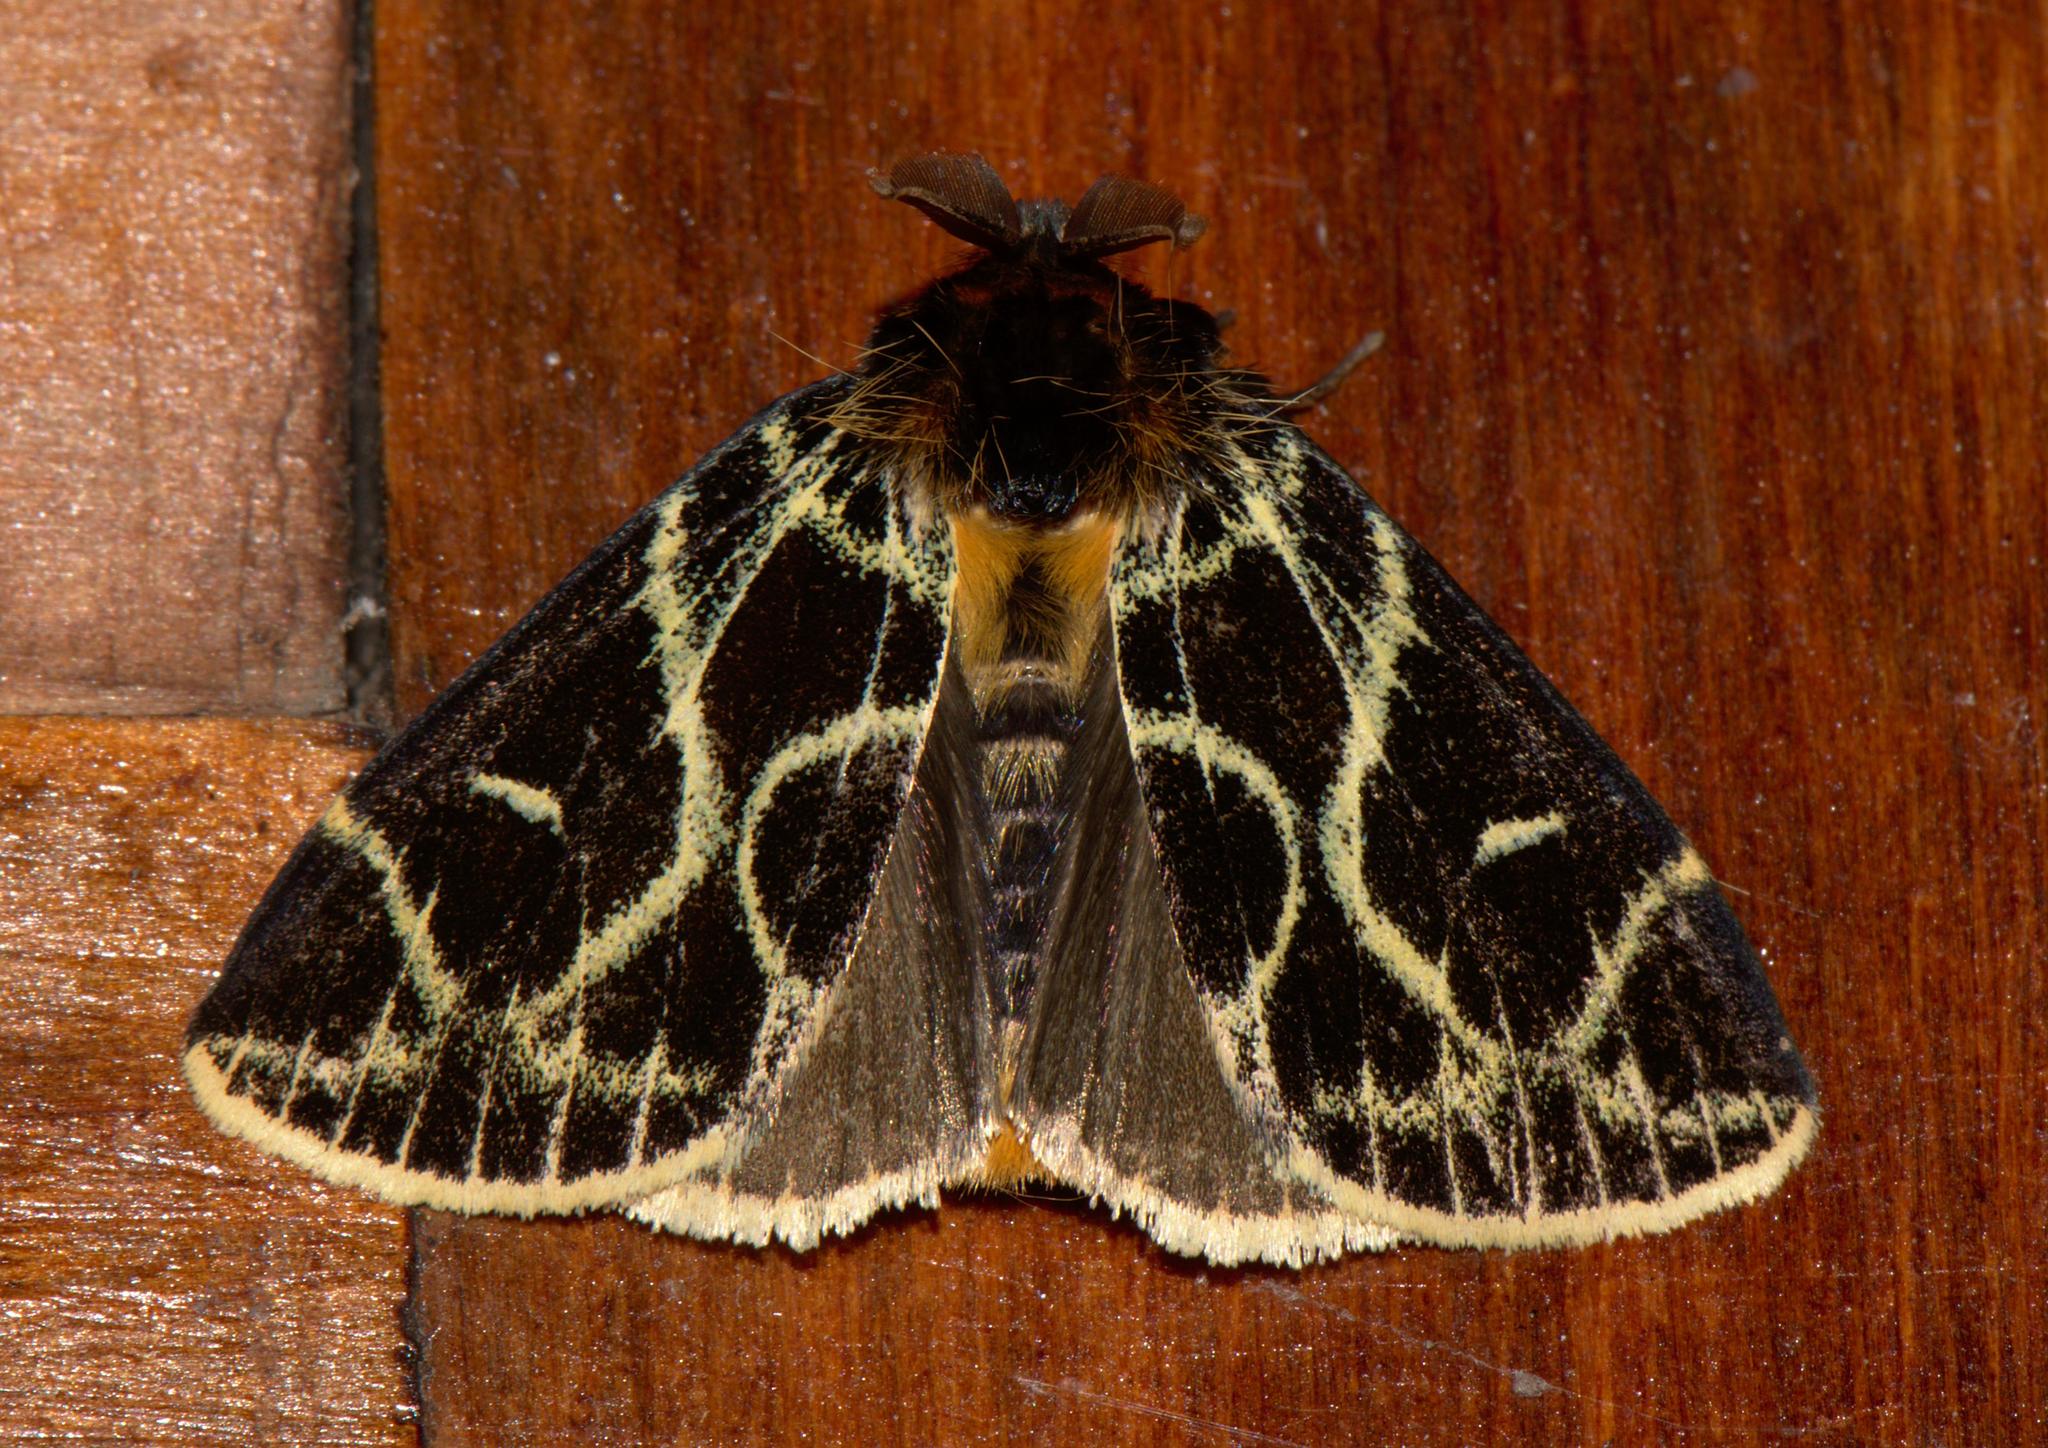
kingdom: Animalia
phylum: Arthropoda
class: Insecta
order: Lepidoptera
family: Erebidae
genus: Pida
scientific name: Pida
